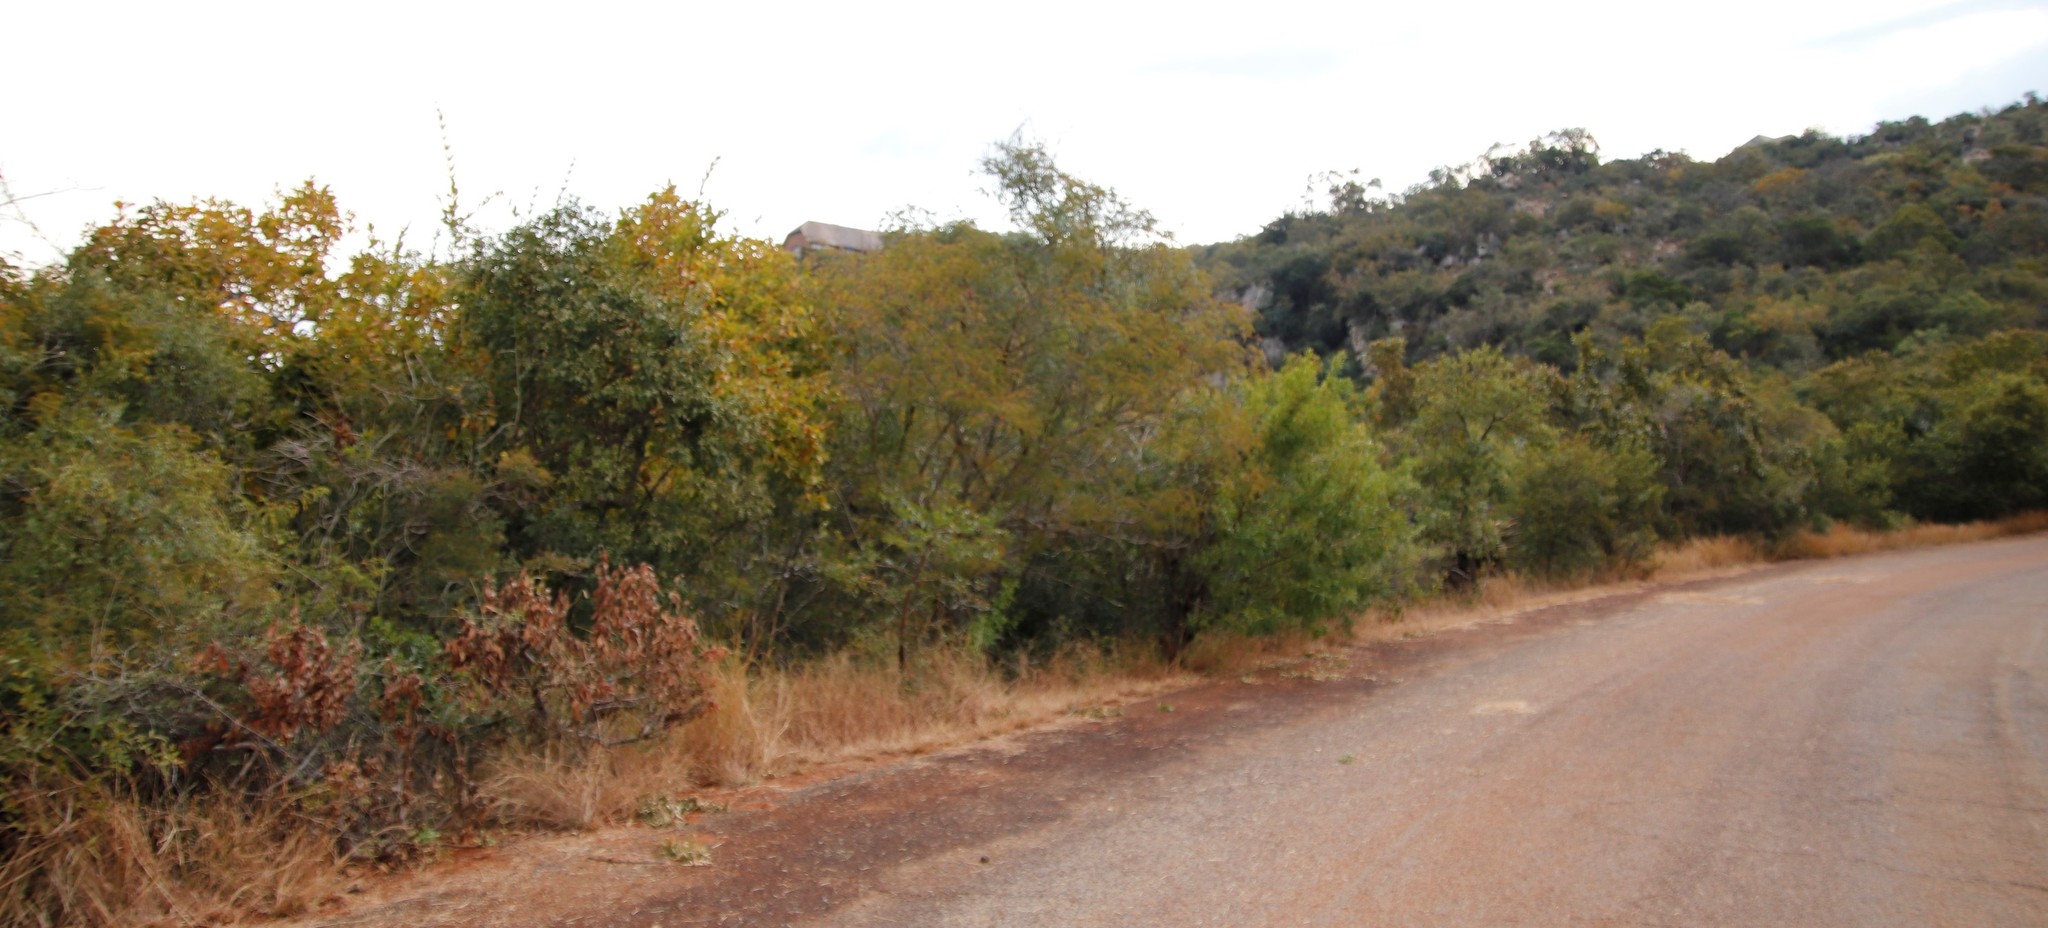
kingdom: Plantae
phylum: Tracheophyta
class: Magnoliopsida
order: Fabales
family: Fabaceae
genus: Albizia
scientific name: Albizia harveyi
